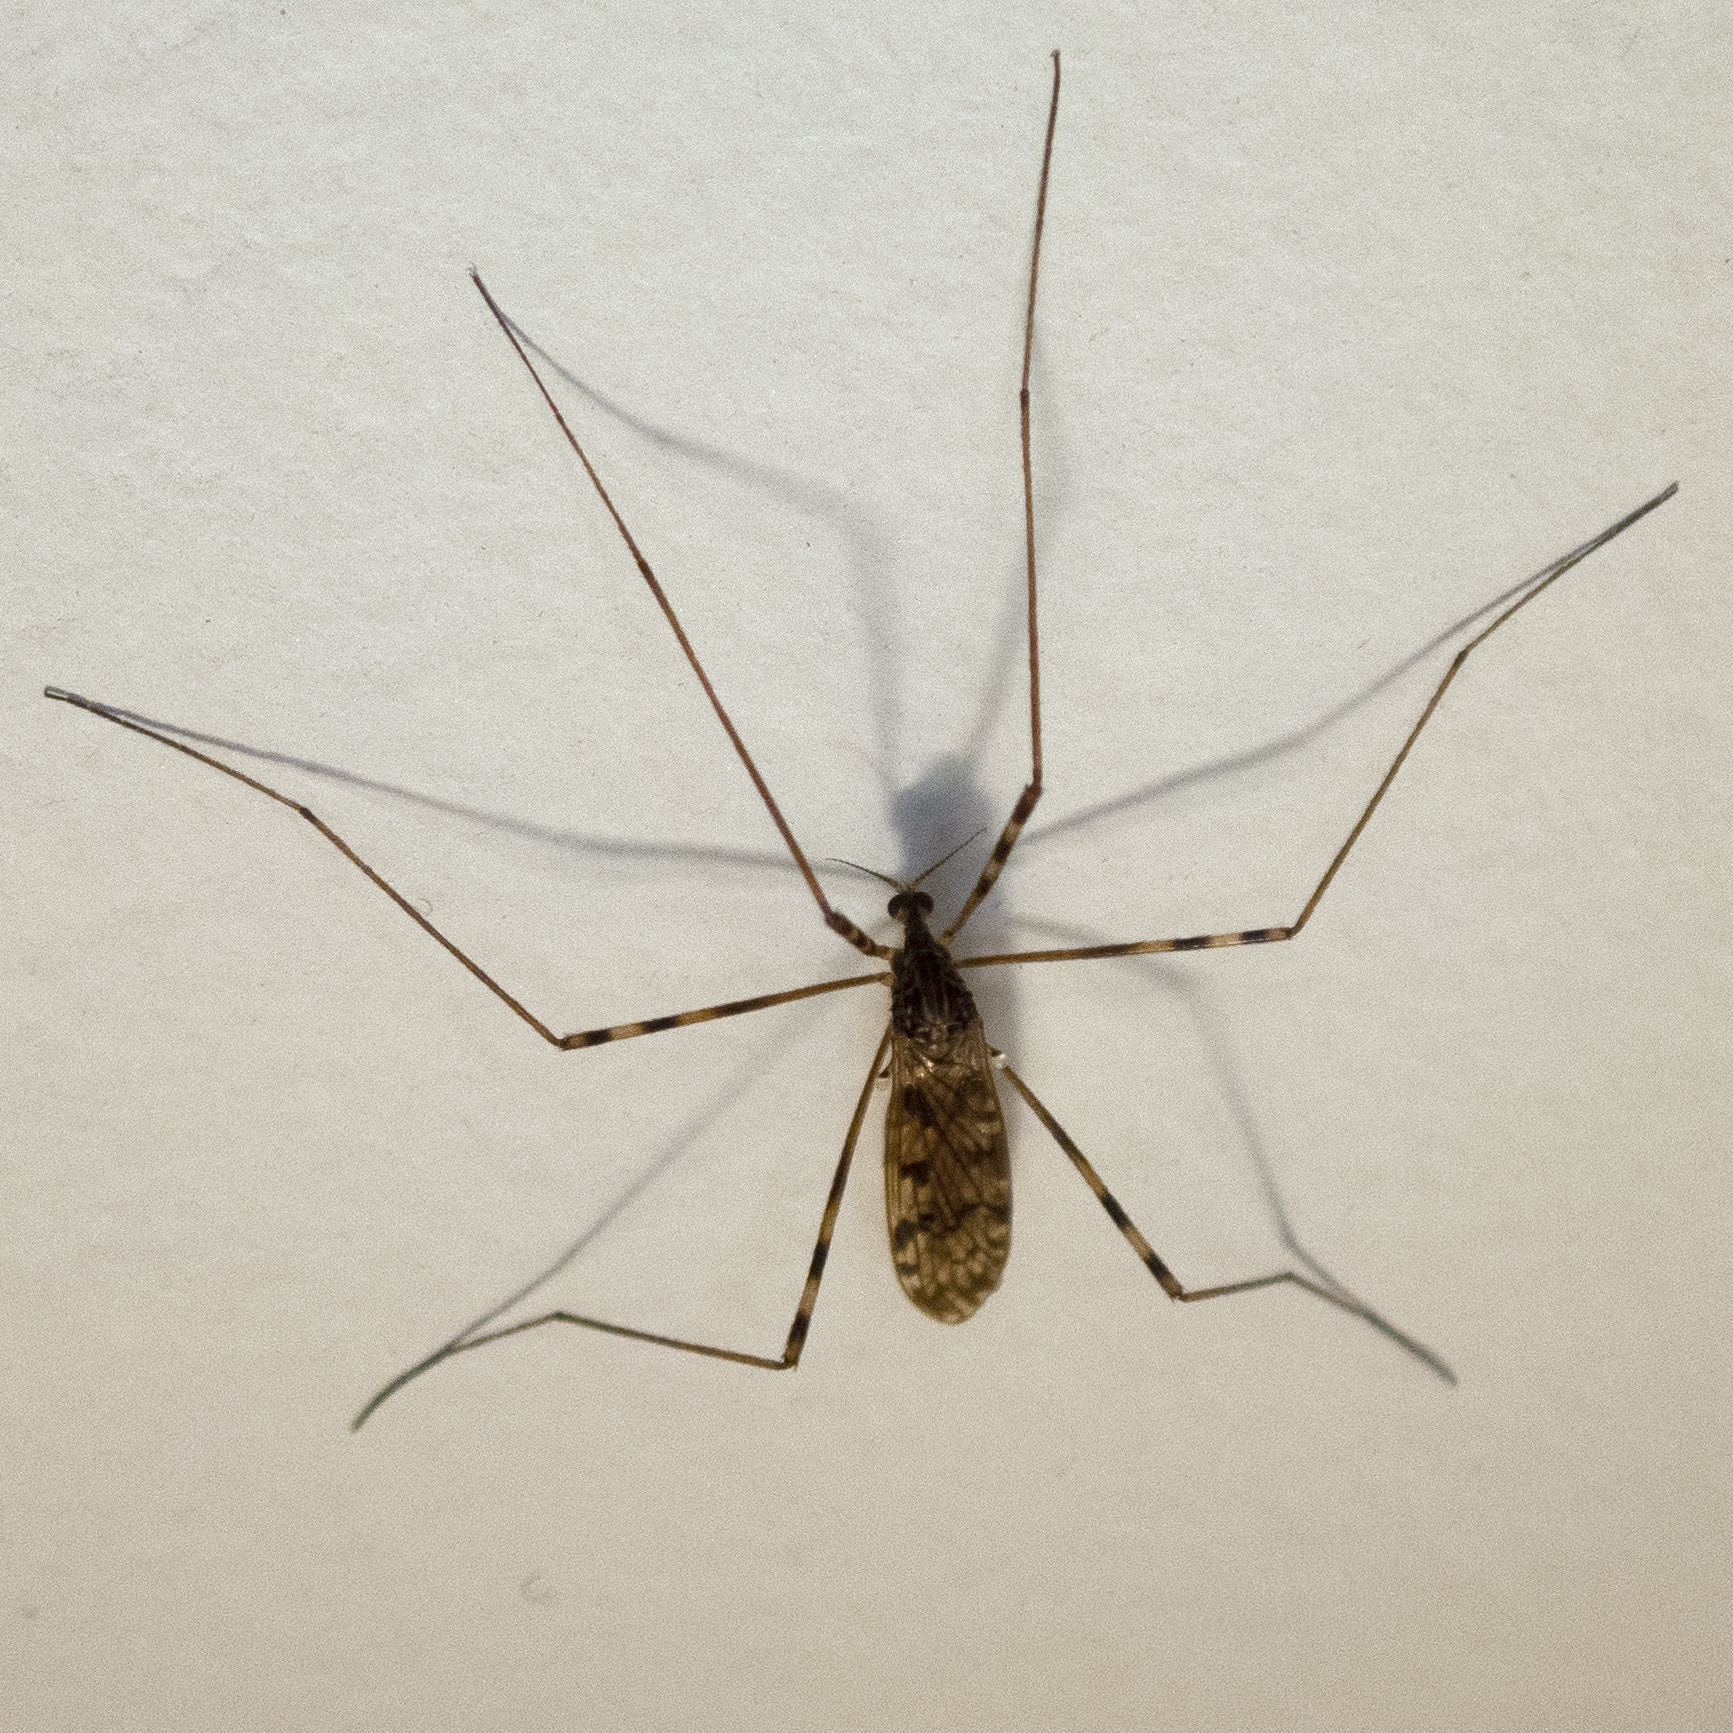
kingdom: Animalia
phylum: Arthropoda
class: Insecta
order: Diptera
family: Limoniidae
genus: Metalimnobia
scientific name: Metalimnobia immatura
